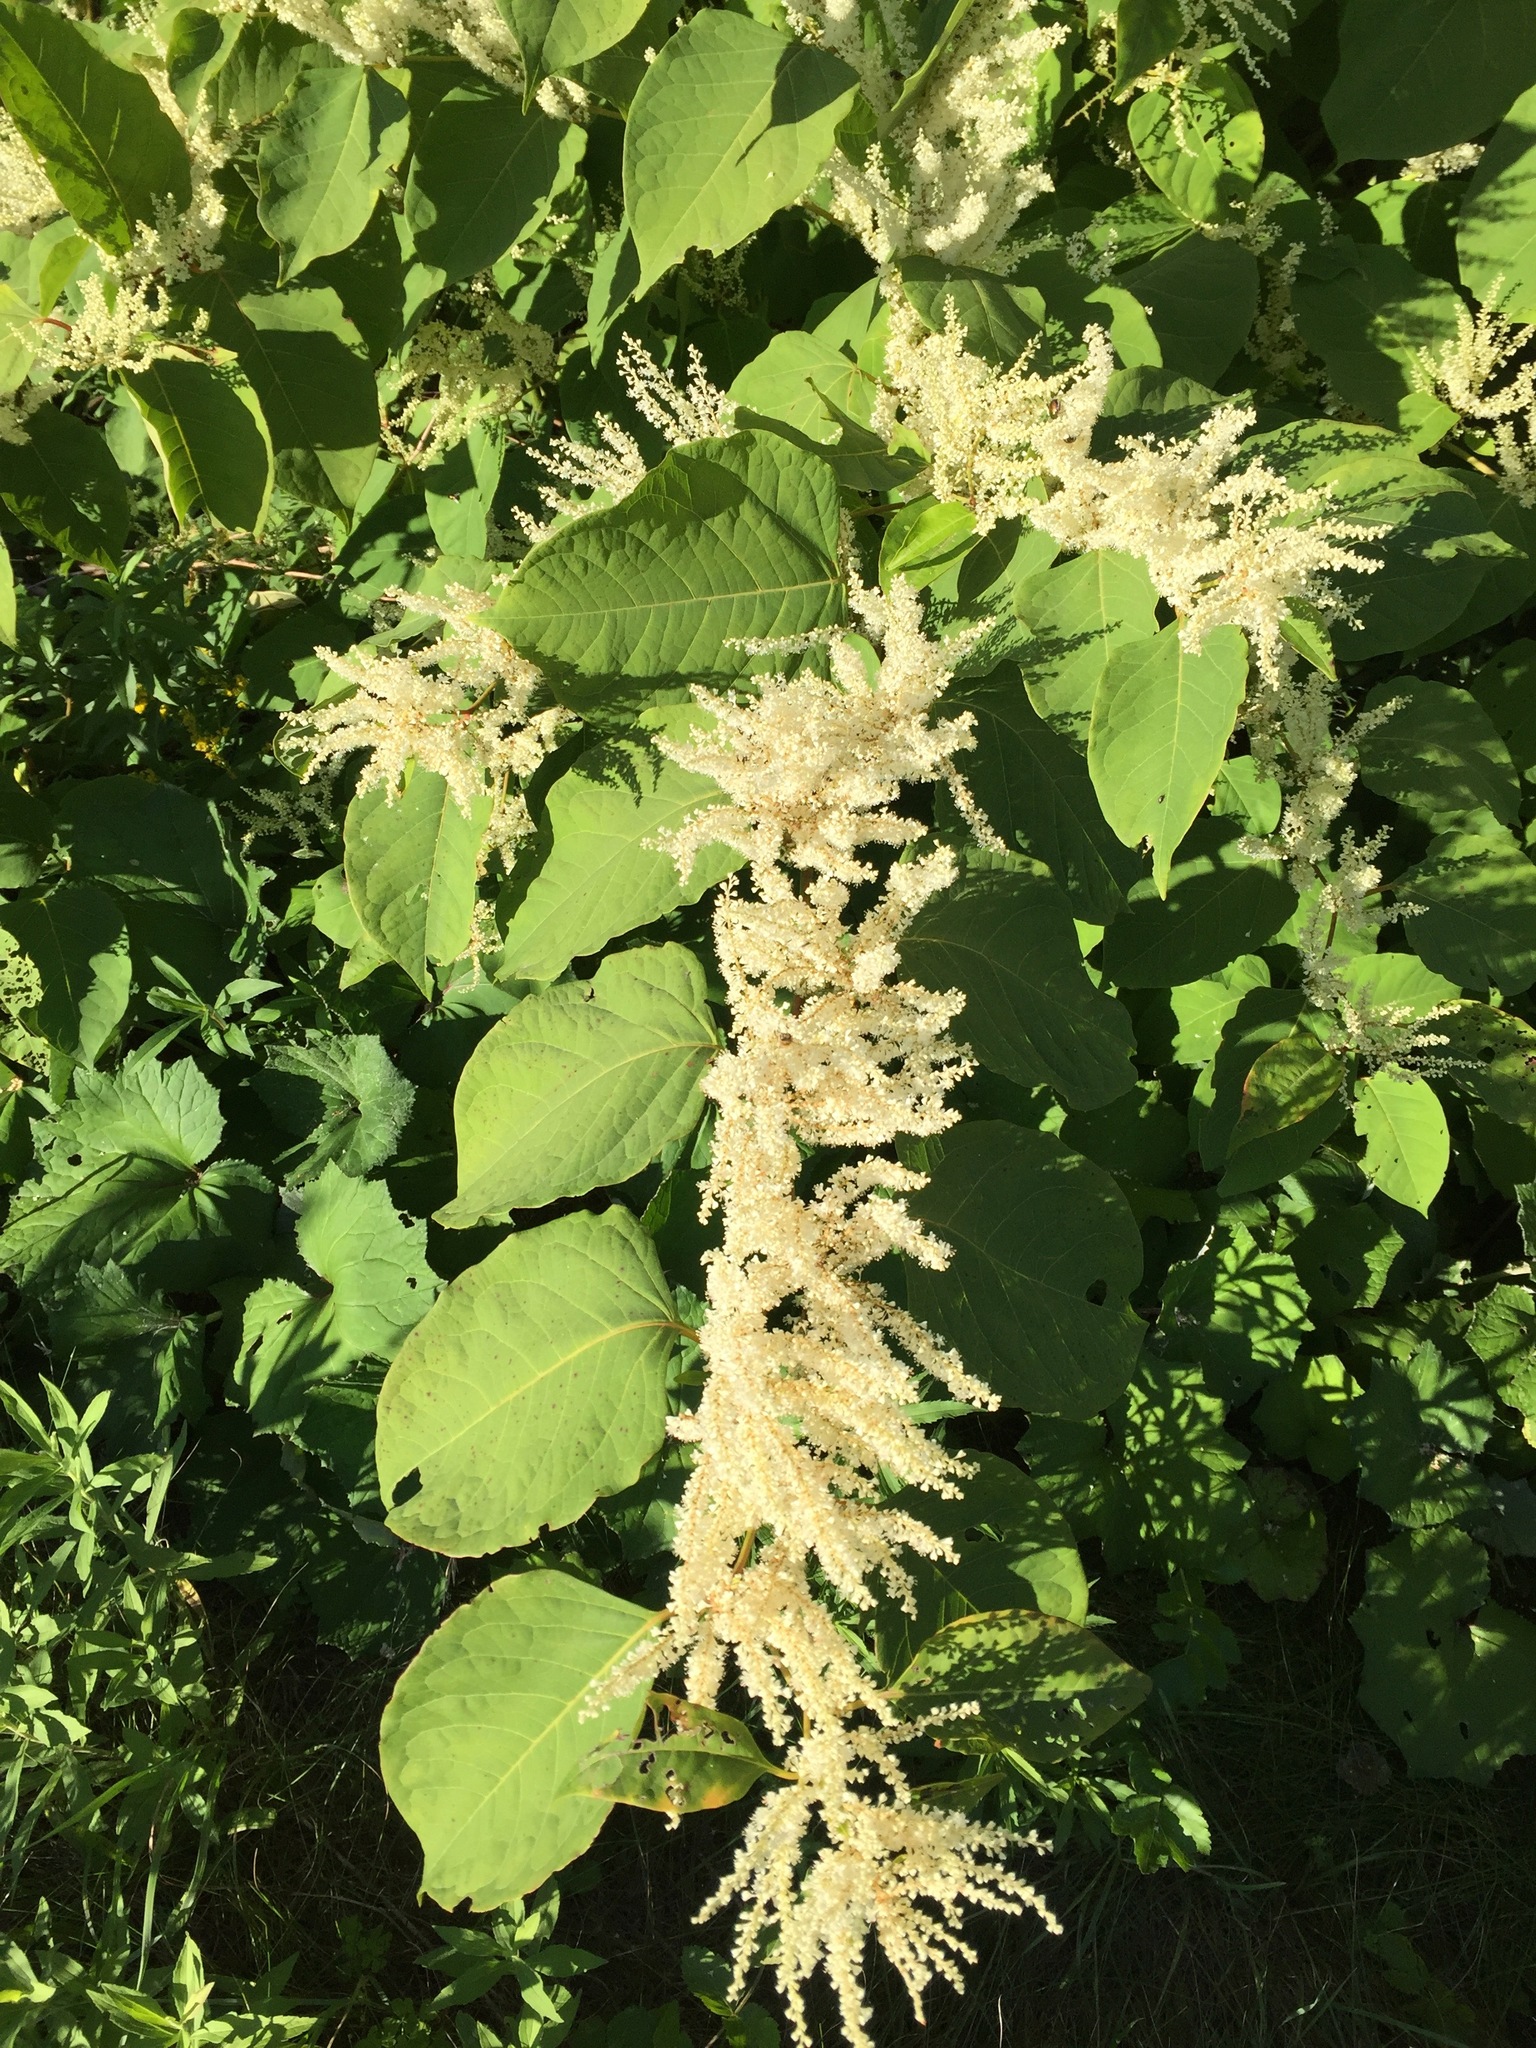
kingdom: Plantae
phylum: Tracheophyta
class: Magnoliopsida
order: Caryophyllales
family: Polygonaceae
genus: Reynoutria
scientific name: Reynoutria japonica
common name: Japanese knotweed
